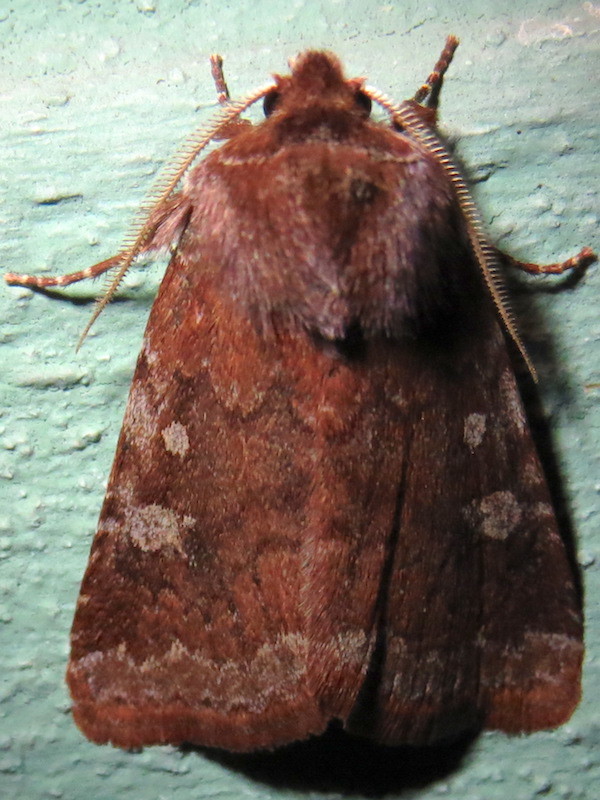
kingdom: Animalia
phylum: Arthropoda
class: Insecta
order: Lepidoptera
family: Noctuidae
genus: Cerastis
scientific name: Cerastis tenebrifera
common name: Reddish speckled dart
